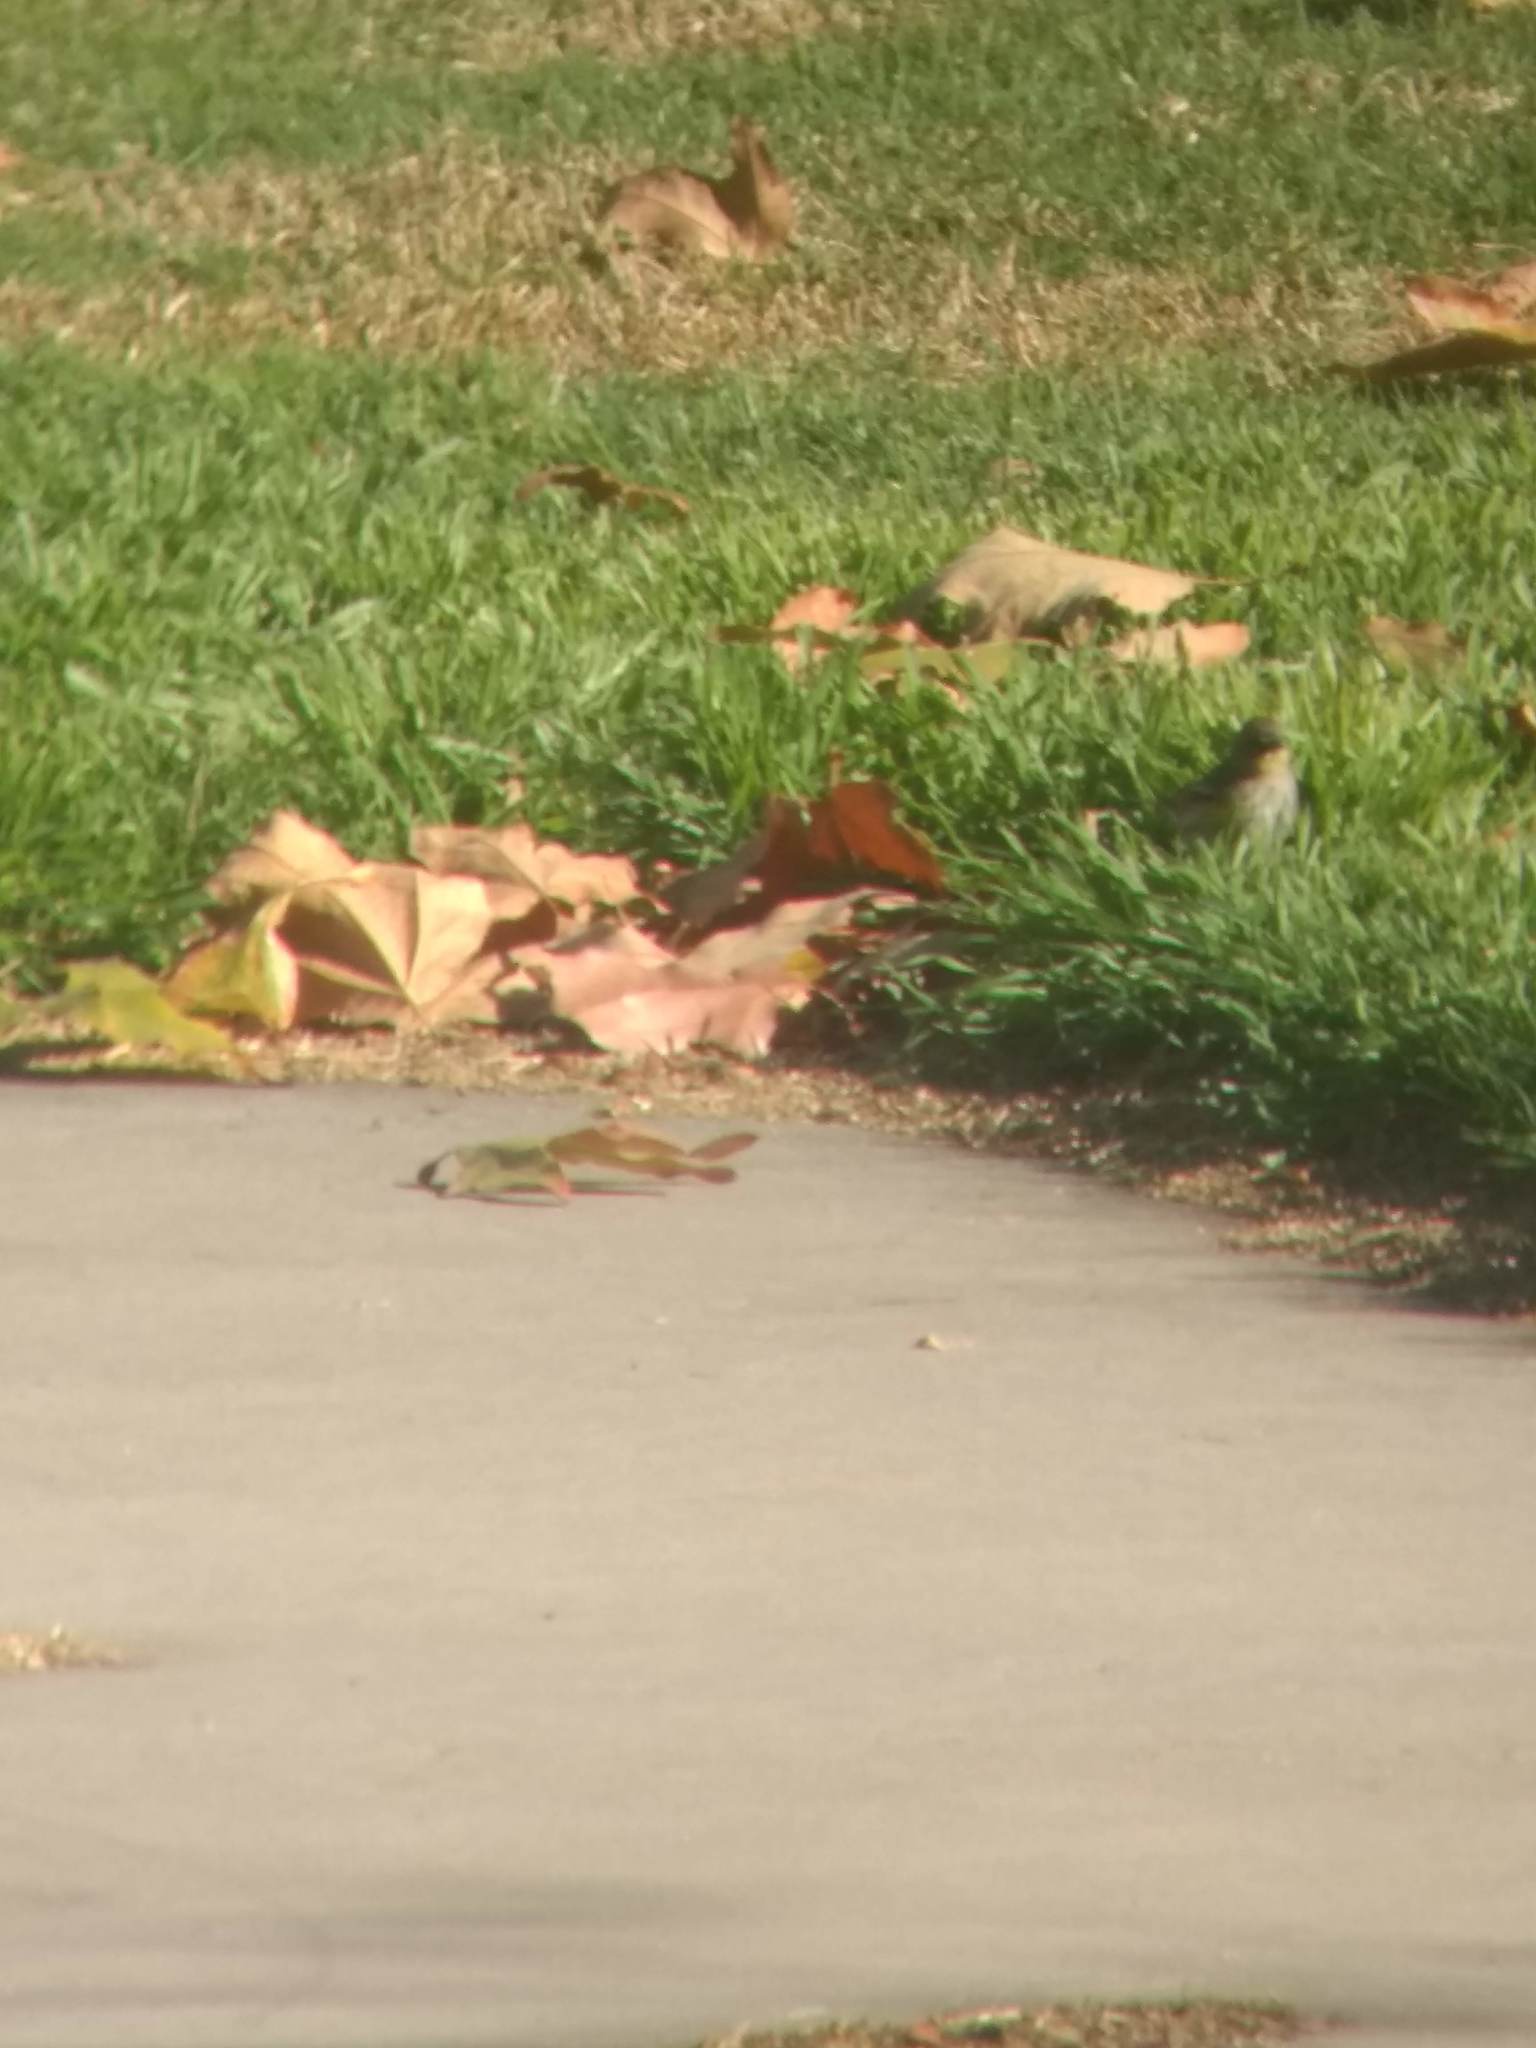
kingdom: Animalia
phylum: Chordata
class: Aves
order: Passeriformes
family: Parulidae
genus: Setophaga
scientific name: Setophaga coronata
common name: Myrtle warbler
